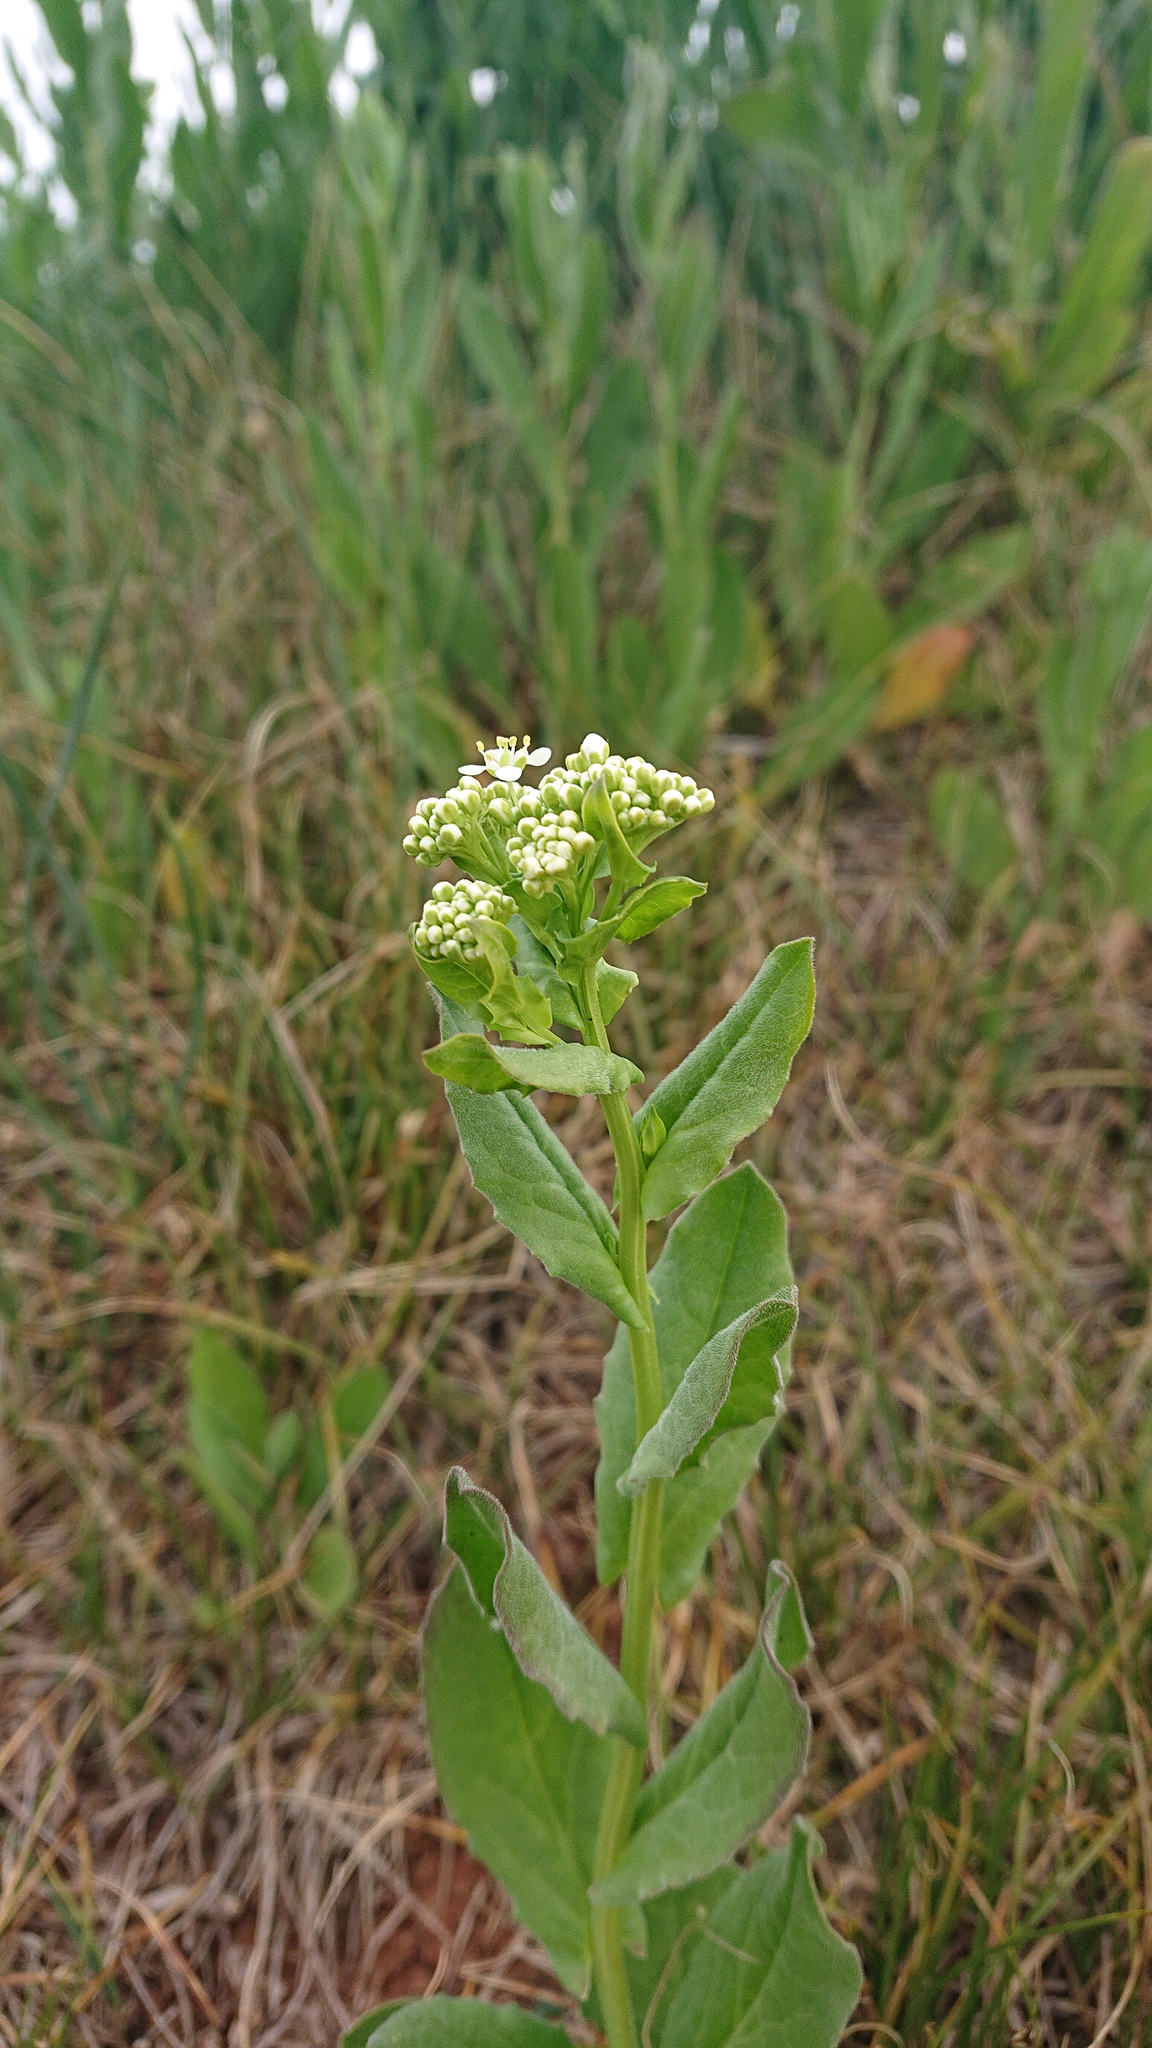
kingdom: Plantae
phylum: Tracheophyta
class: Magnoliopsida
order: Brassicales
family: Brassicaceae
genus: Lepidium
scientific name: Lepidium draba
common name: Hoary cress
